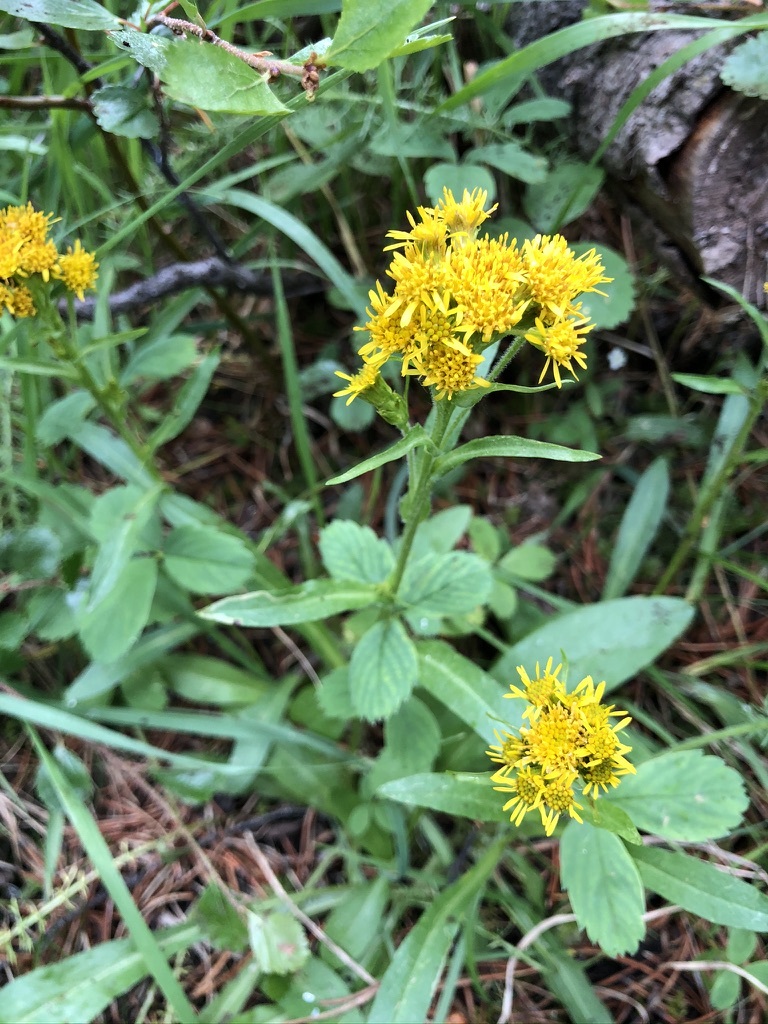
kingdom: Plantae
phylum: Tracheophyta
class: Magnoliopsida
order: Asterales
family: Asteraceae
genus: Solidago
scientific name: Solidago multiradiata
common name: Northern goldenrod
